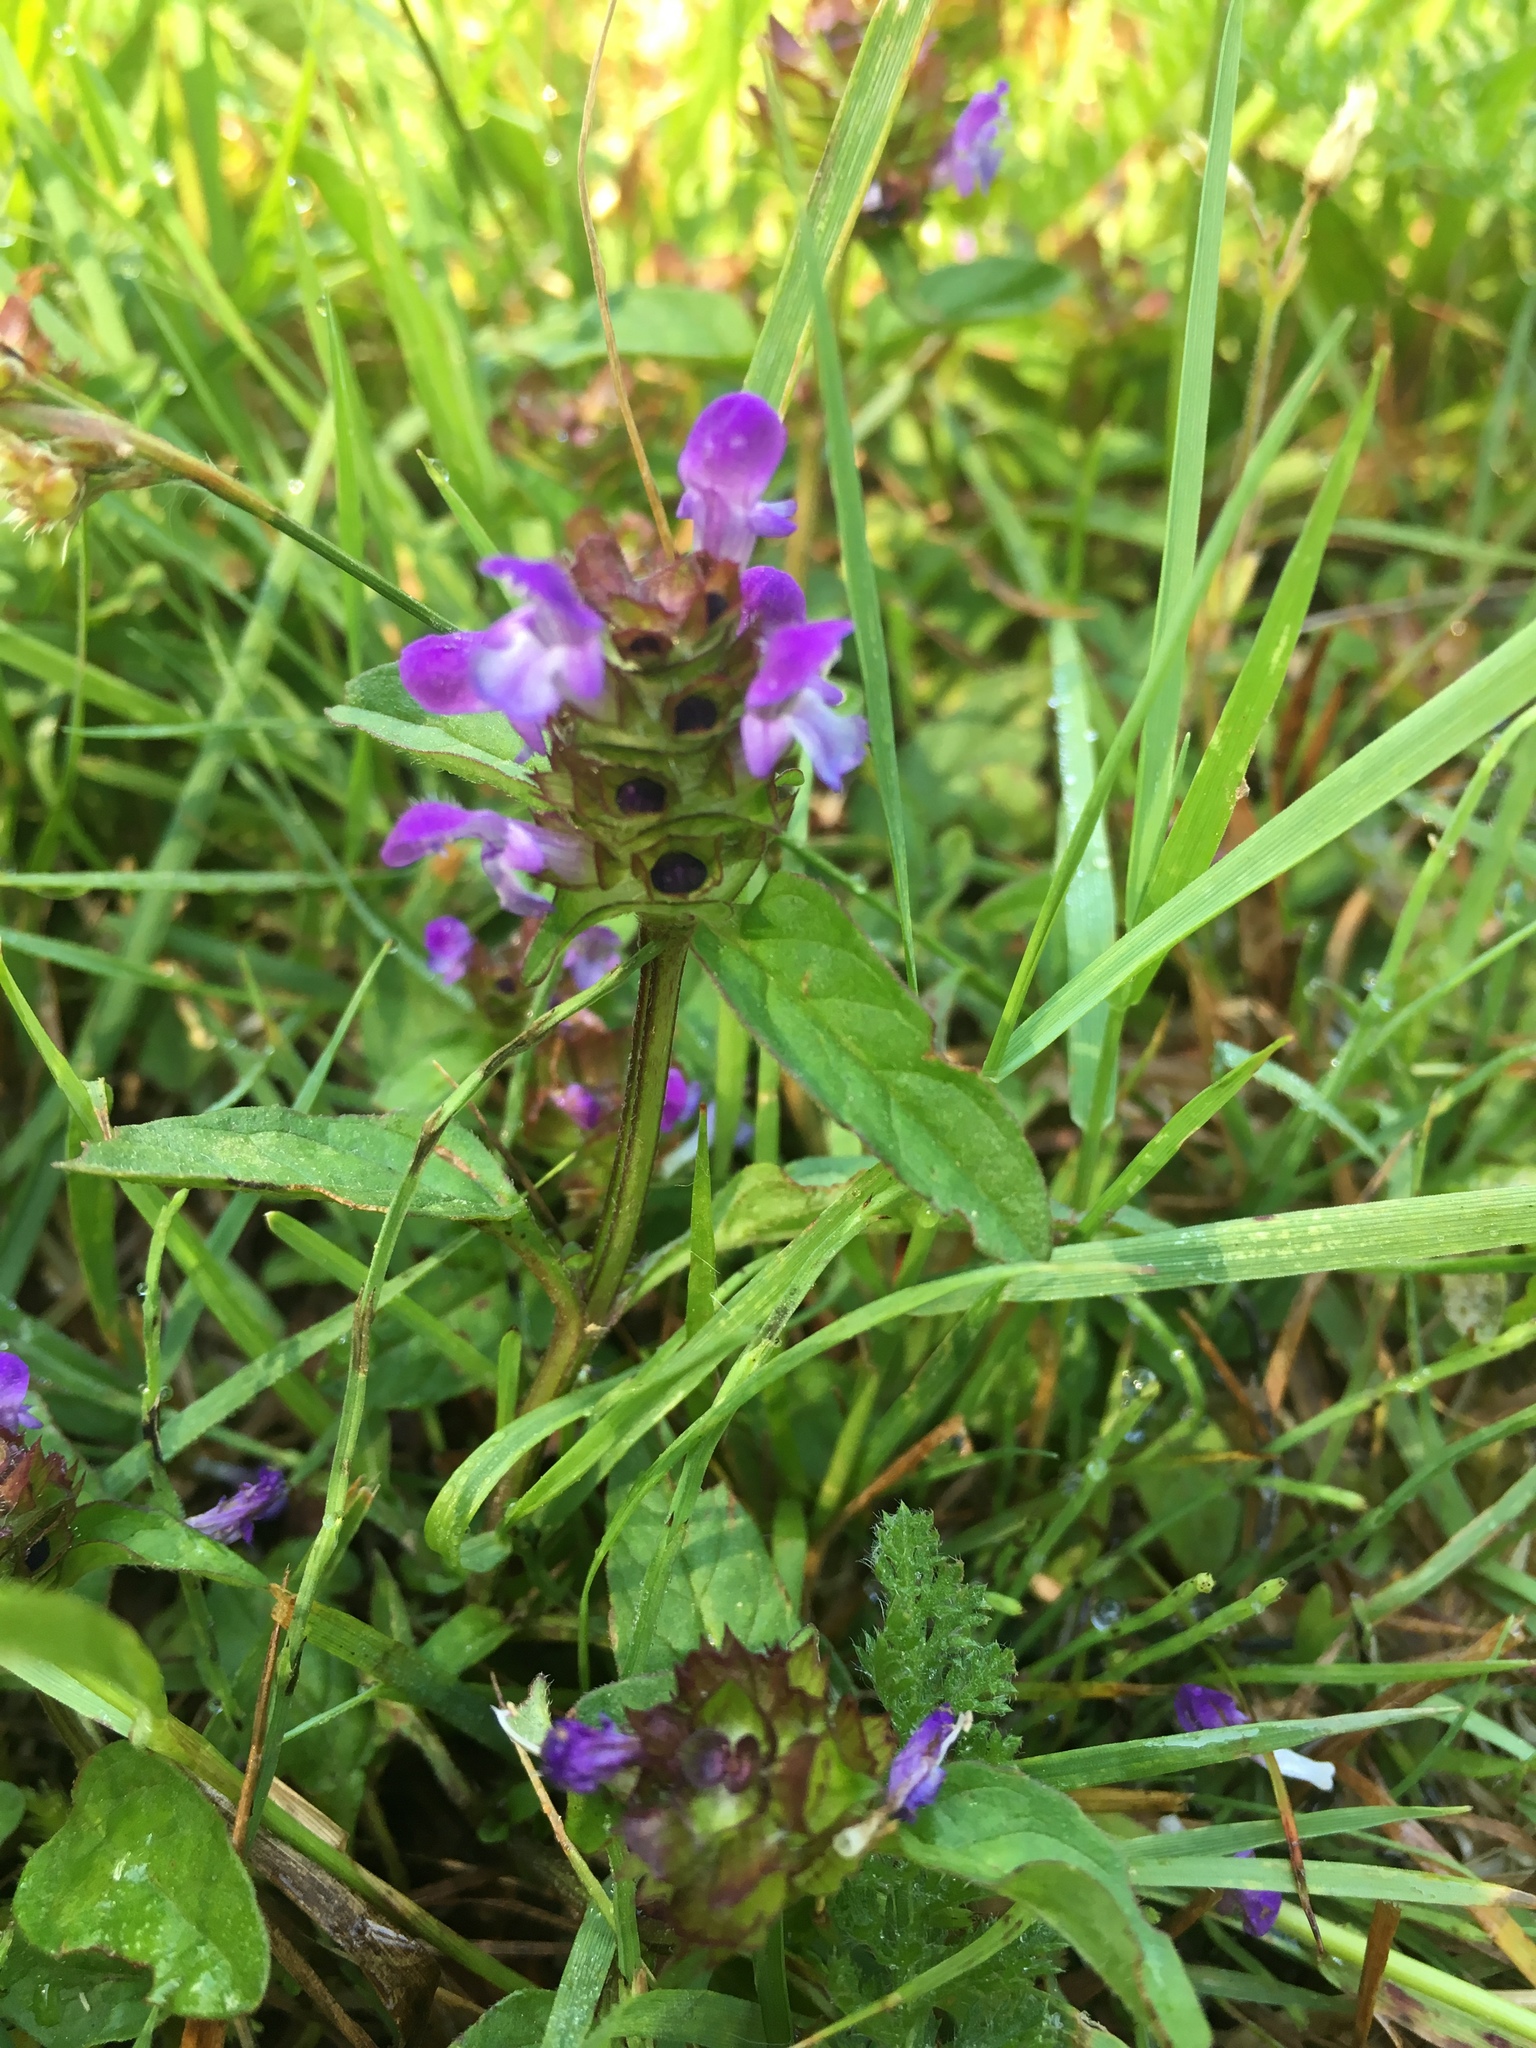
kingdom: Plantae
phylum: Tracheophyta
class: Magnoliopsida
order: Lamiales
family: Lamiaceae
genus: Prunella
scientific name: Prunella vulgaris
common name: Heal-all
